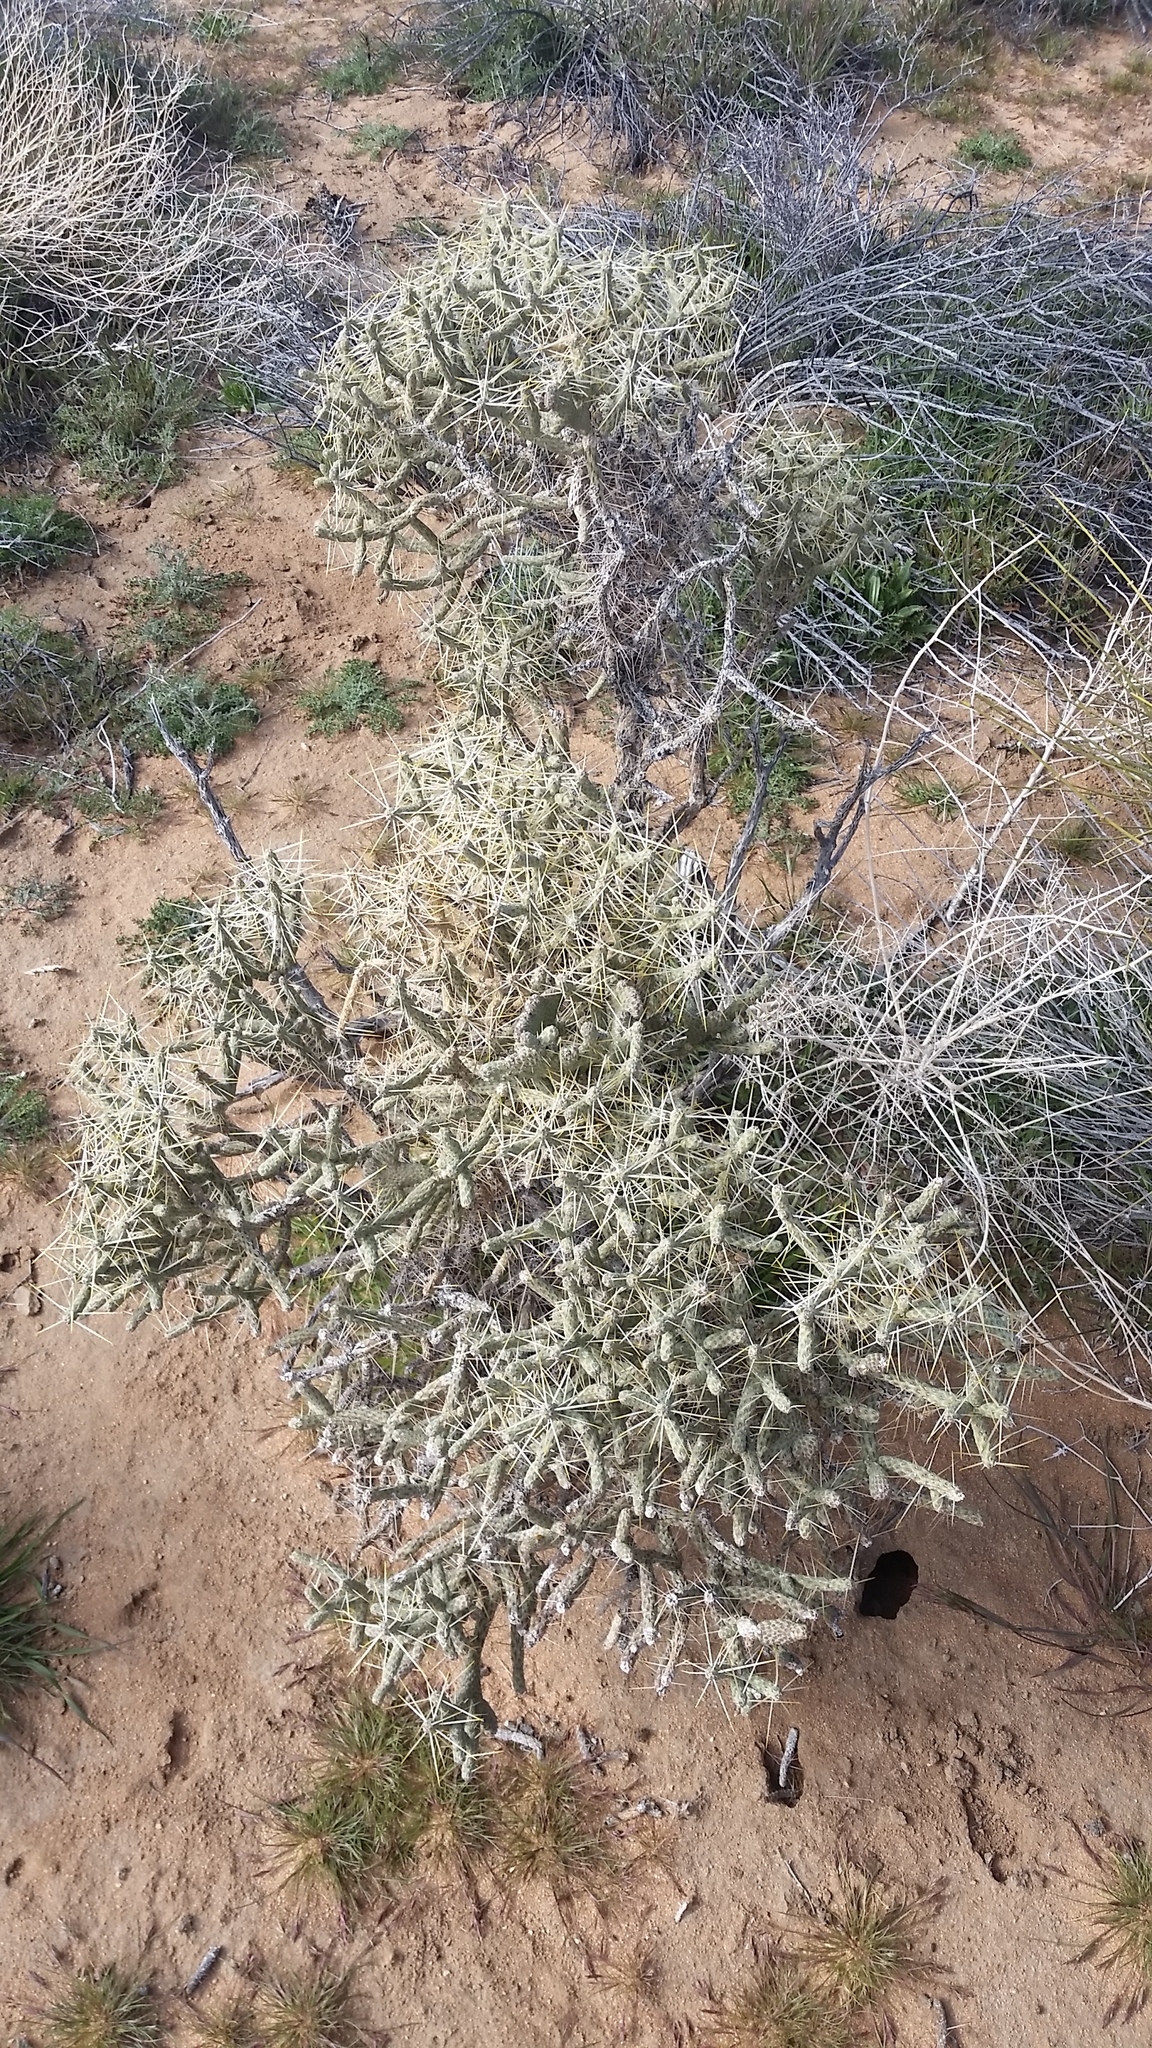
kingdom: Plantae
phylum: Tracheophyta
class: Magnoliopsida
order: Caryophyllales
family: Cactaceae
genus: Cylindropuntia
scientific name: Cylindropuntia ramosissima
